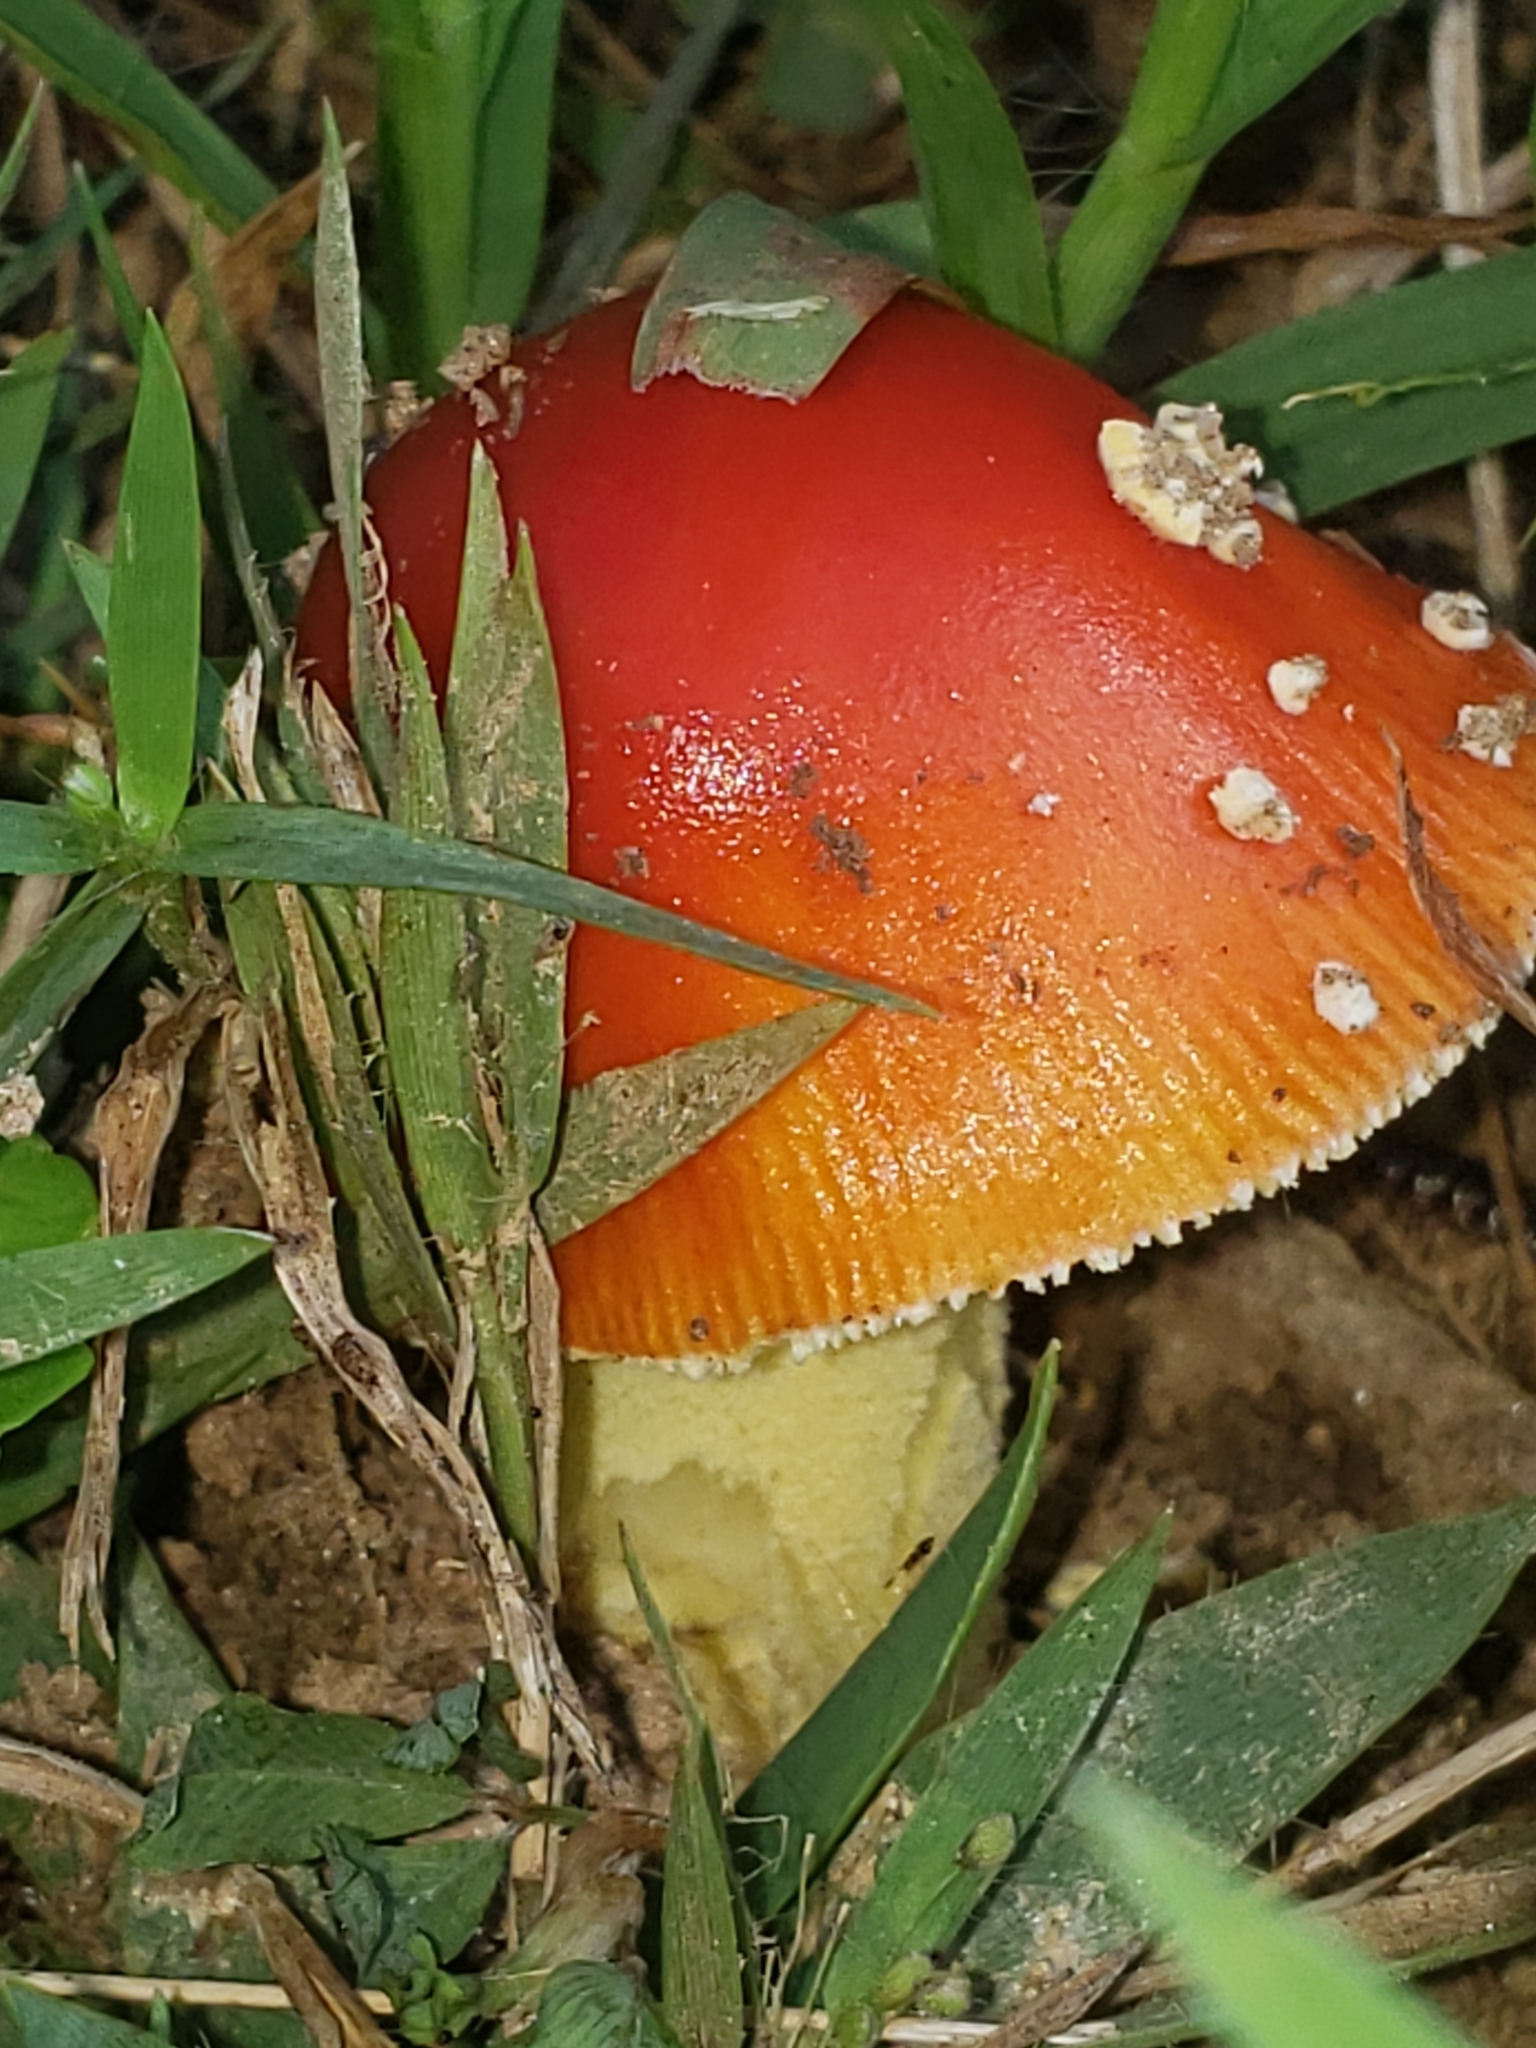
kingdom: Fungi
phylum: Basidiomycota
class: Agaricomycetes
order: Agaricales
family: Amanitaceae
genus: Amanita
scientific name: Amanita parcivolvata
